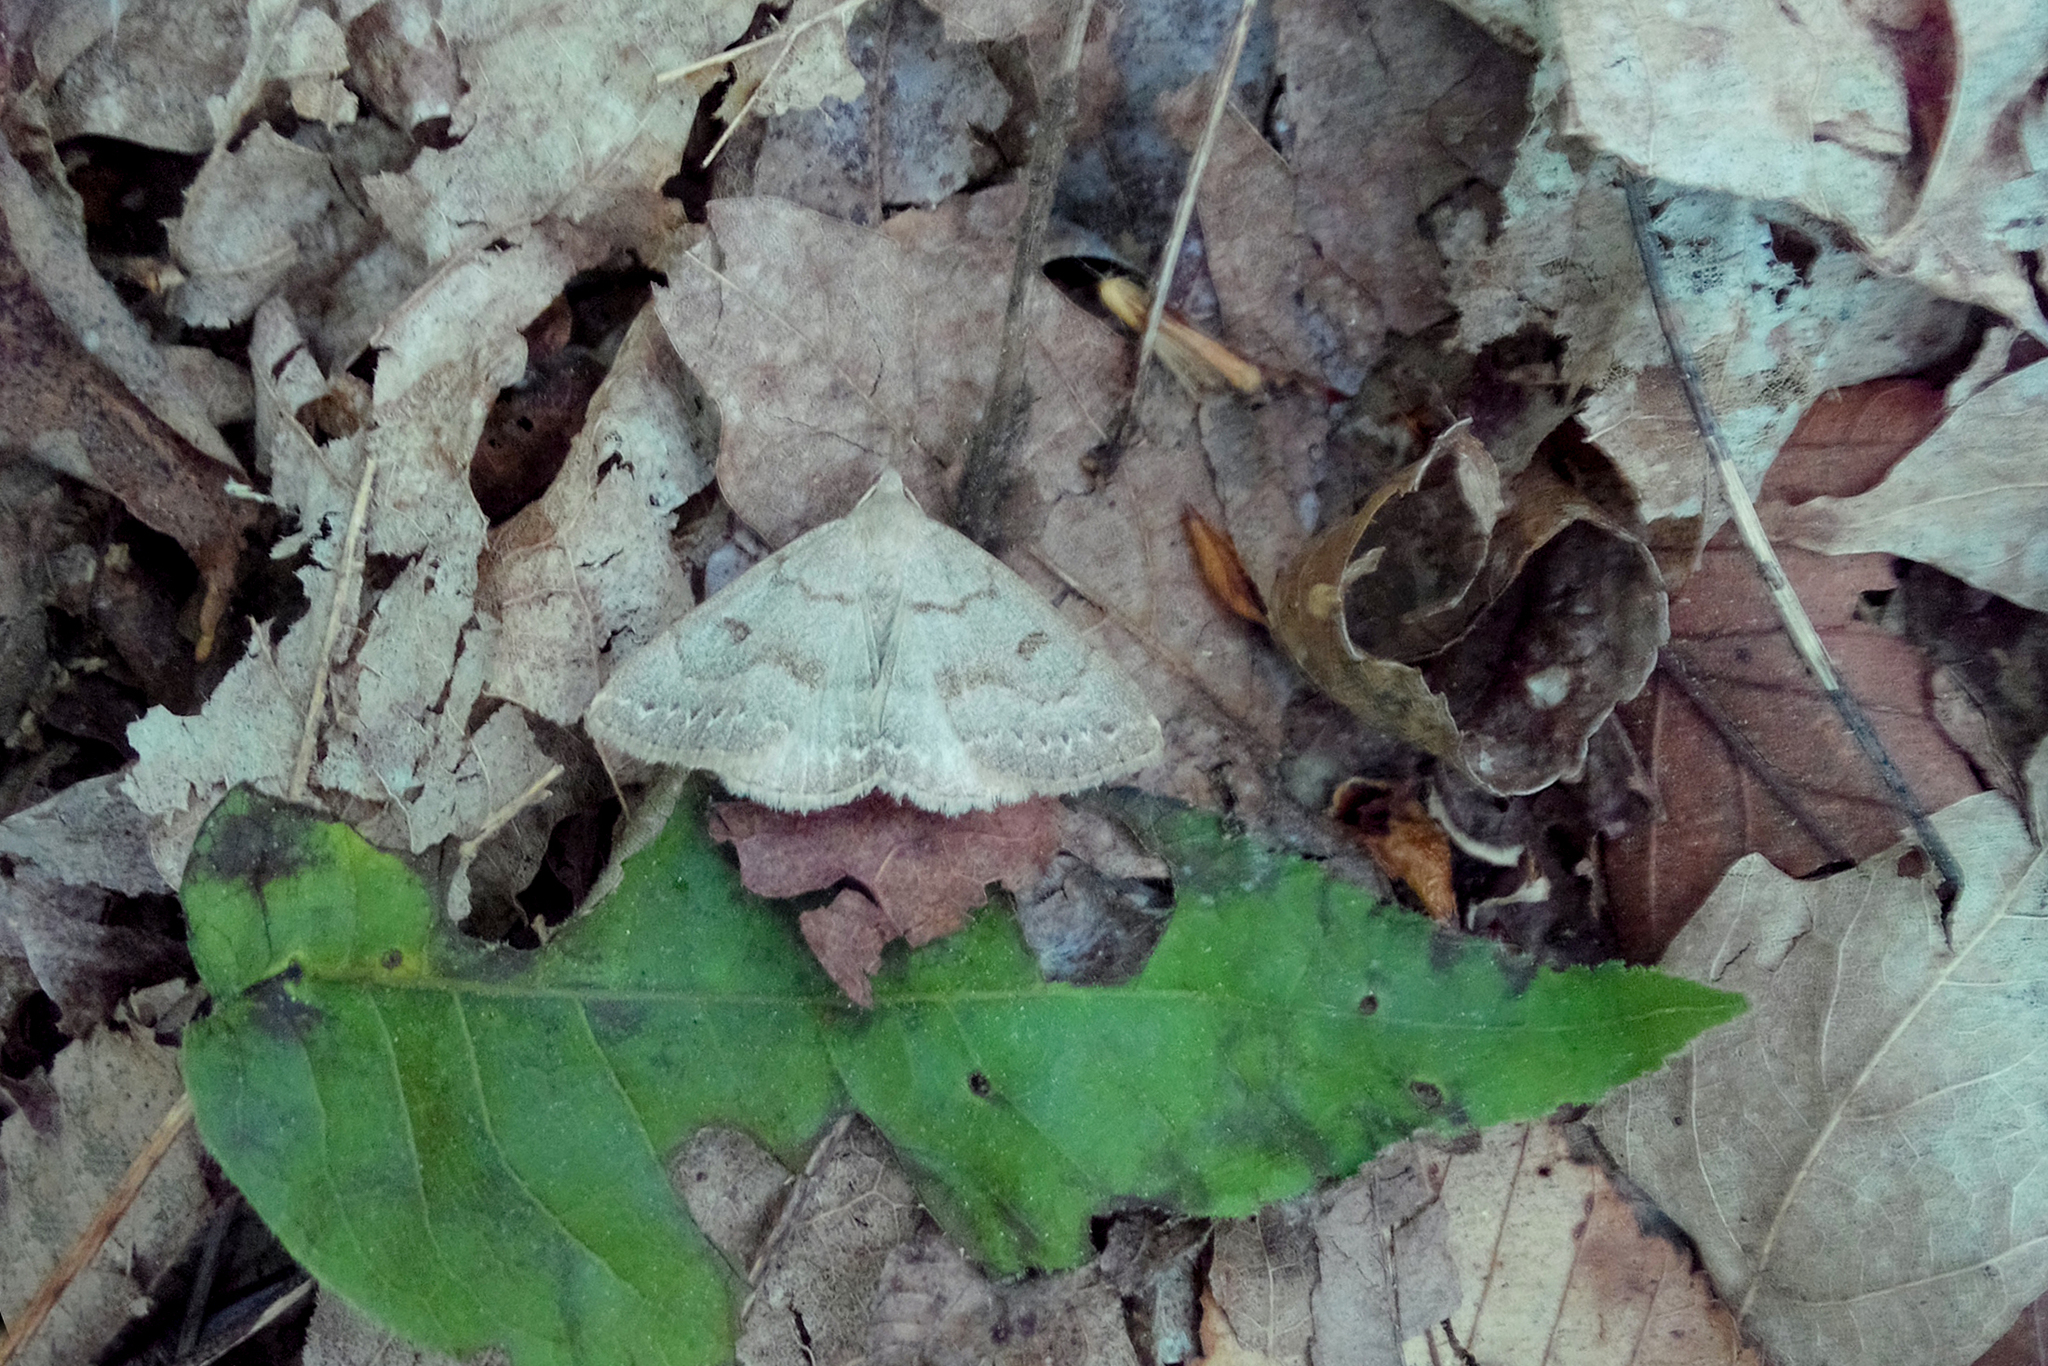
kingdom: Animalia
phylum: Arthropoda
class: Insecta
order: Lepidoptera
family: Erebidae
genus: Macrochilo
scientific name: Macrochilo morbidalis
